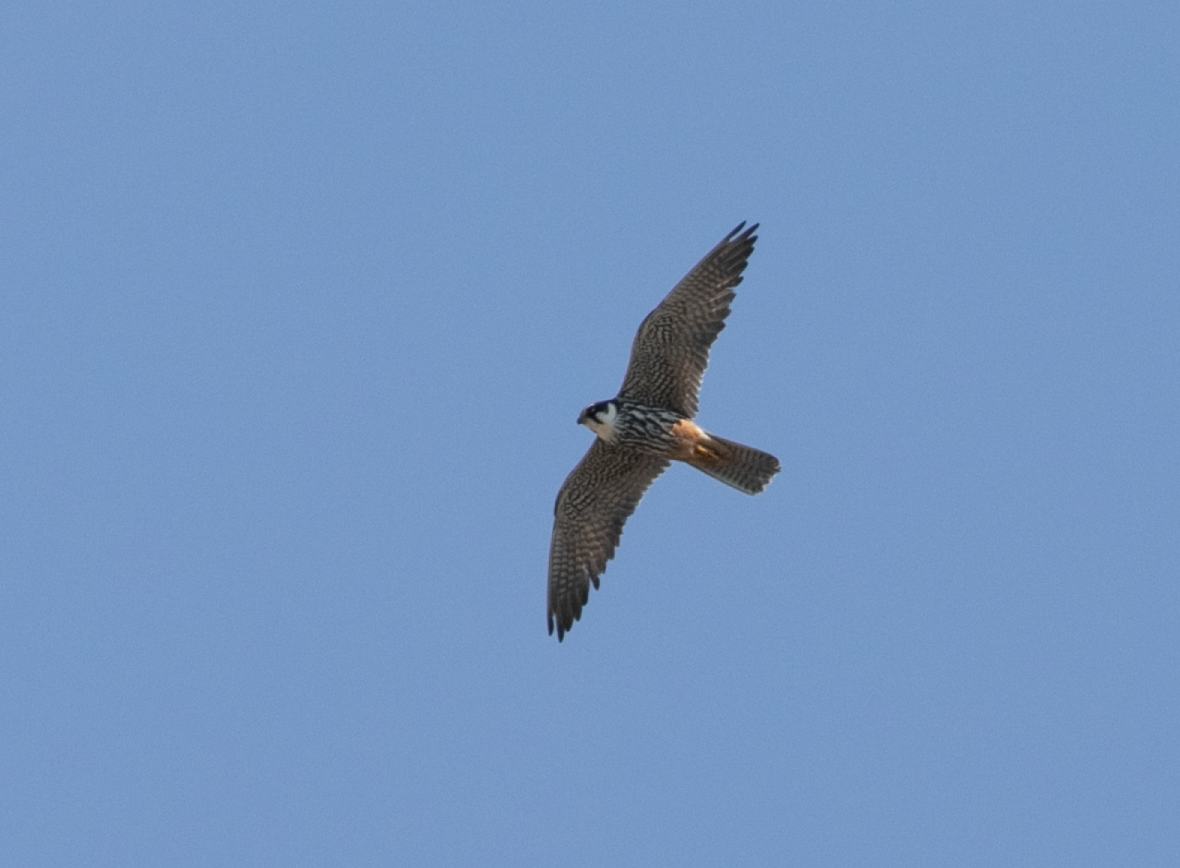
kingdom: Animalia
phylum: Chordata
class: Aves
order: Falconiformes
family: Falconidae
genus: Falco
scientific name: Falco subbuteo
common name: Eurasian hobby
